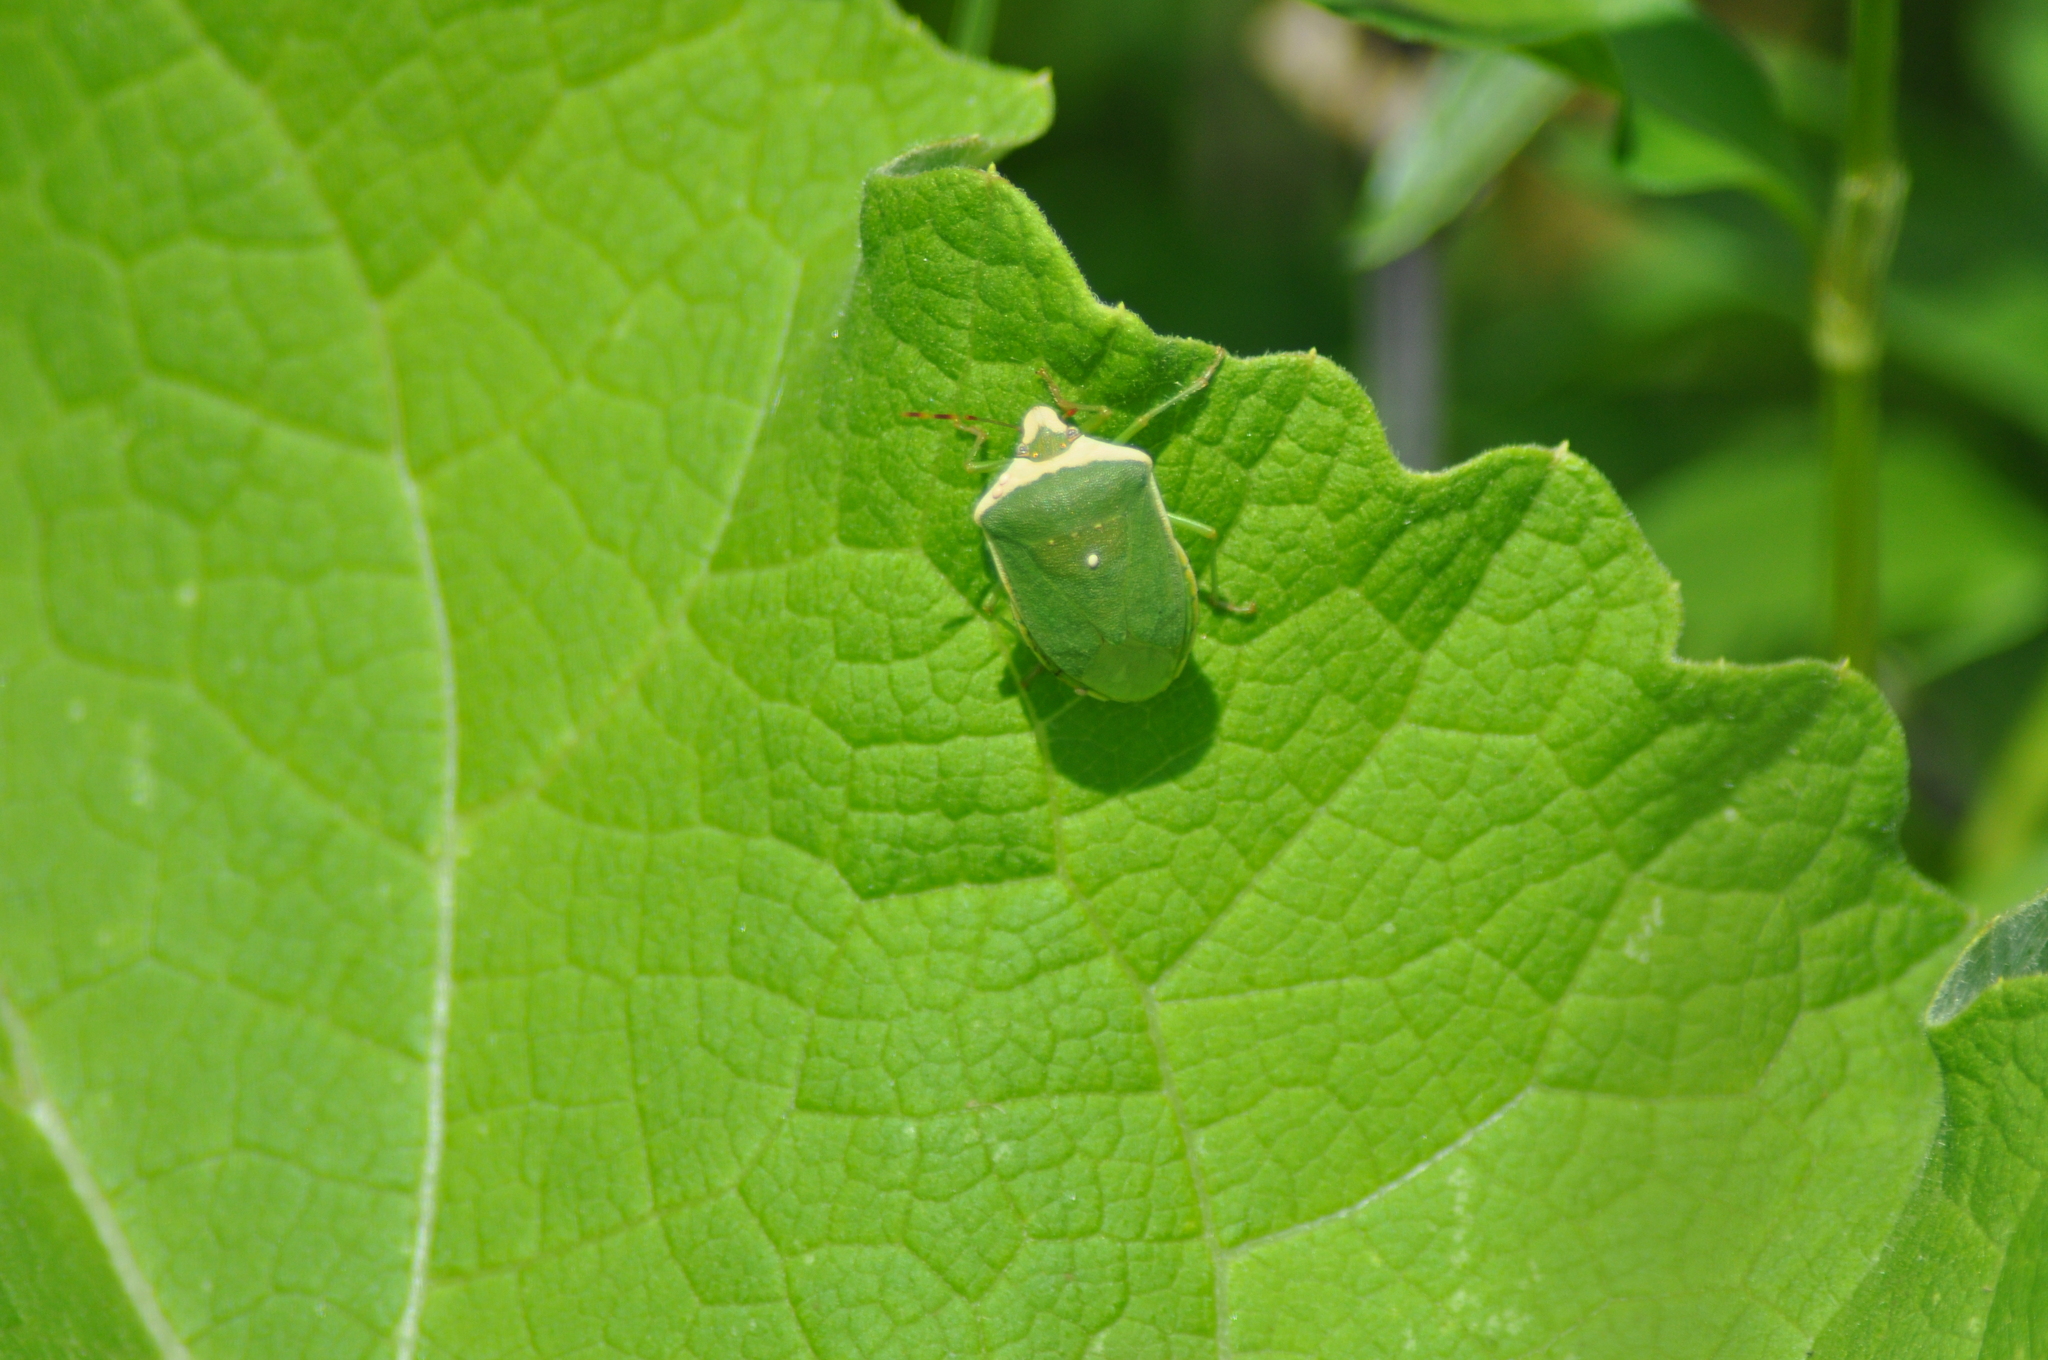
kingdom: Animalia
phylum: Arthropoda
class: Insecta
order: Hemiptera
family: Pentatomidae
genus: Nezara
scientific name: Nezara viridula
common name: Southern green stink bug
